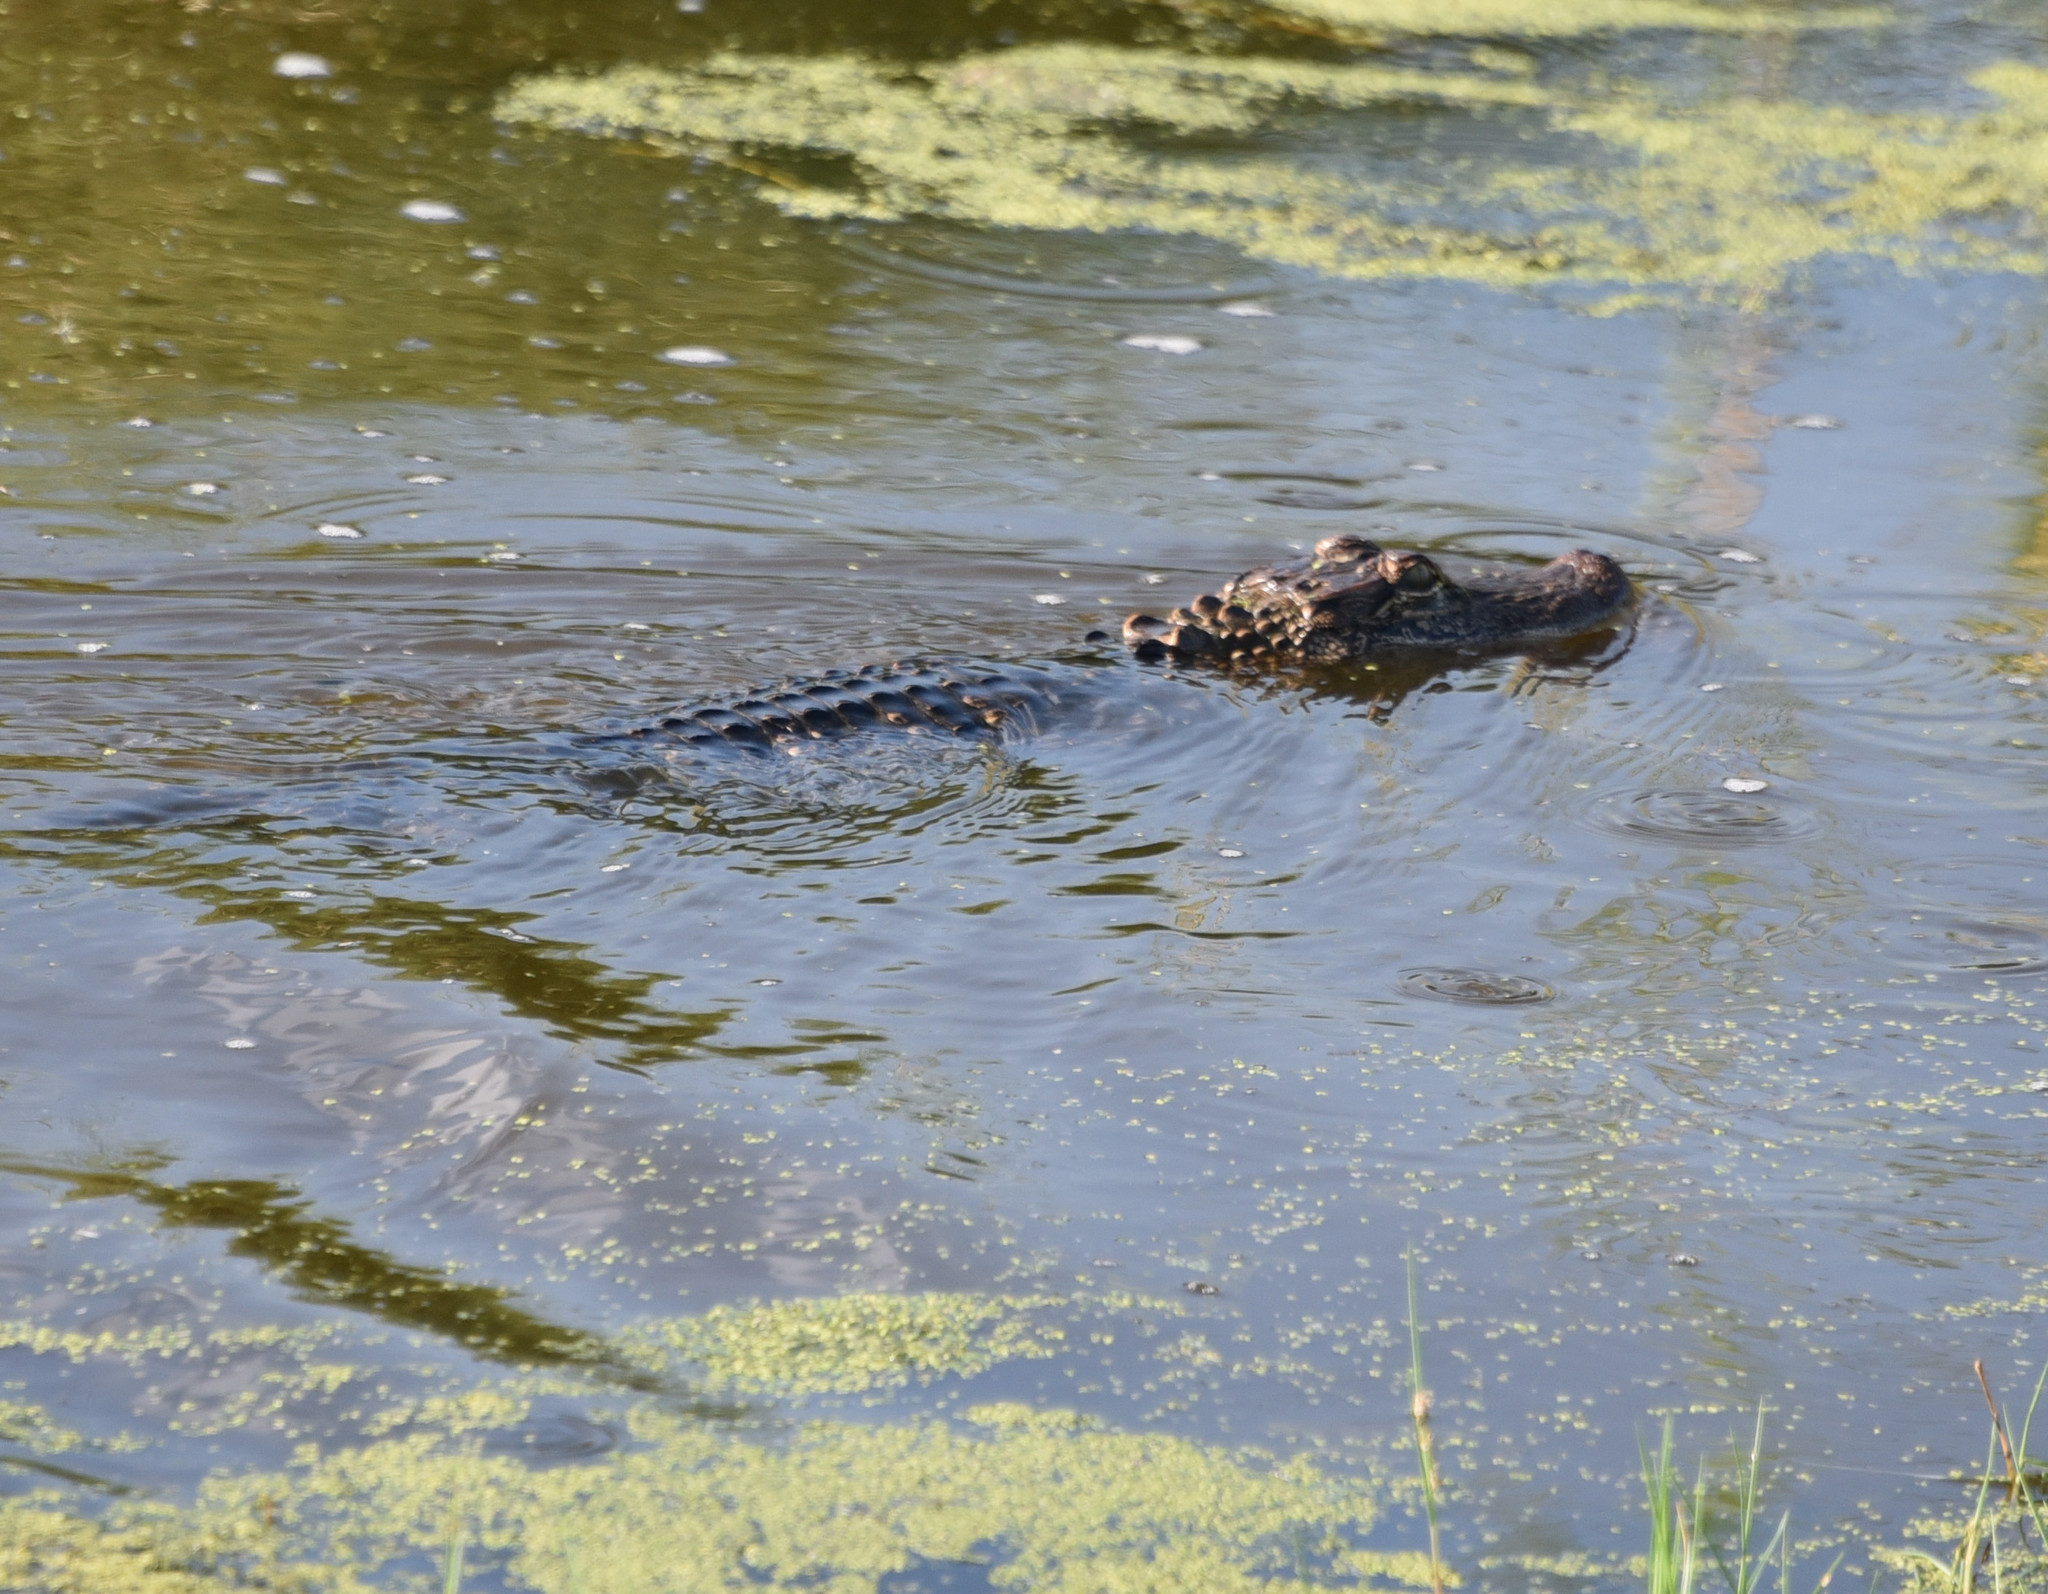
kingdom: Animalia
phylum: Chordata
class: Crocodylia
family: Alligatoridae
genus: Alligator
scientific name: Alligator mississippiensis
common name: American alligator
